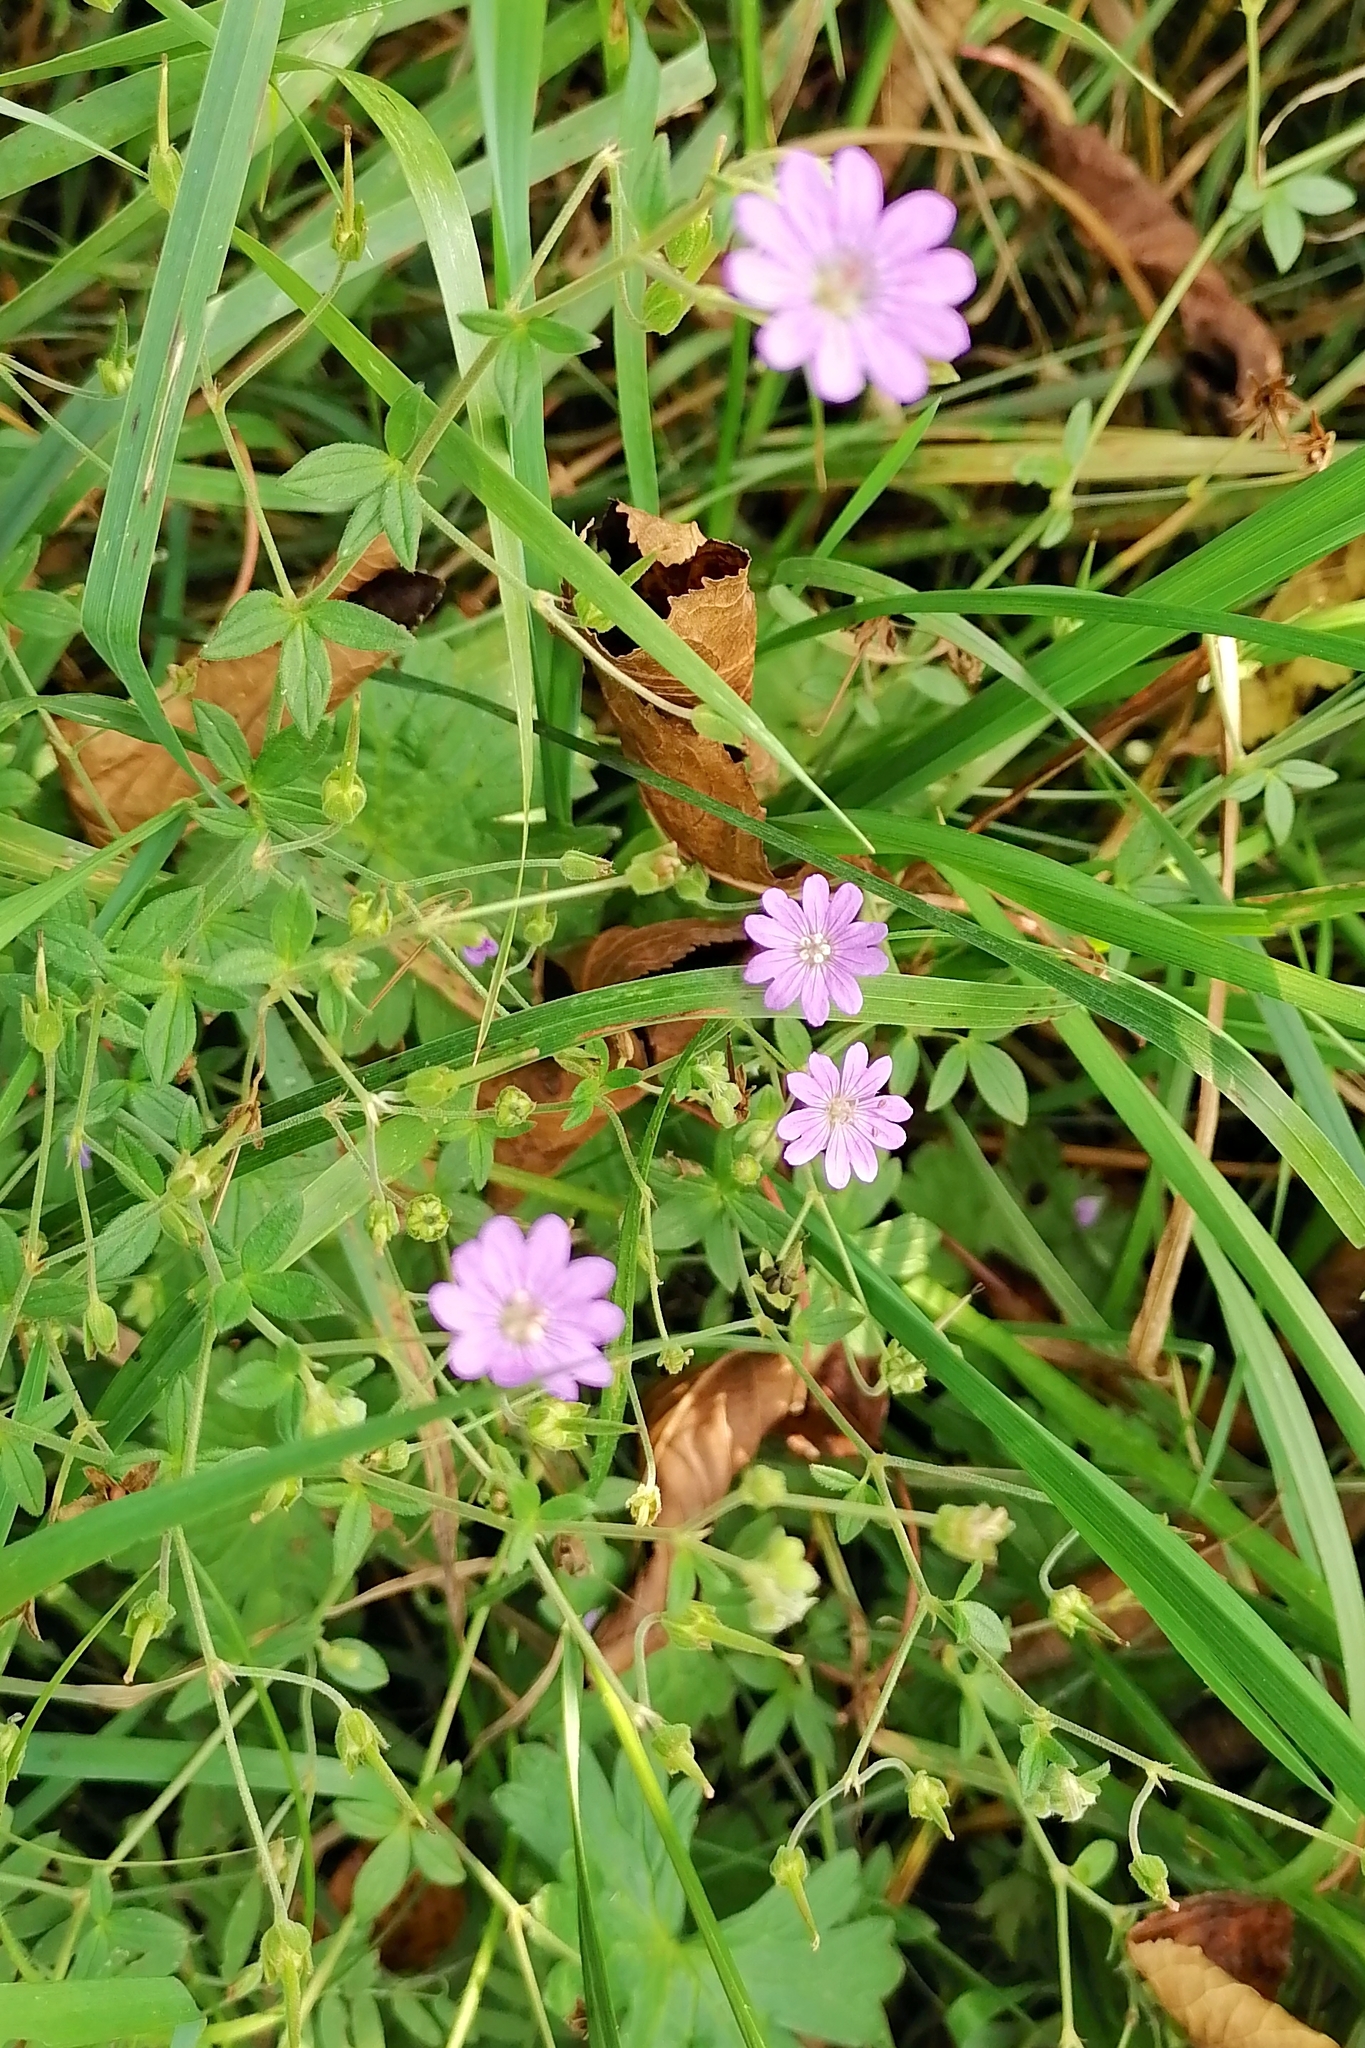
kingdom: Plantae
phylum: Tracheophyta
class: Magnoliopsida
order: Geraniales
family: Geraniaceae
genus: Geranium
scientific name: Geranium pyrenaicum
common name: Hedgerow crane's-bill
